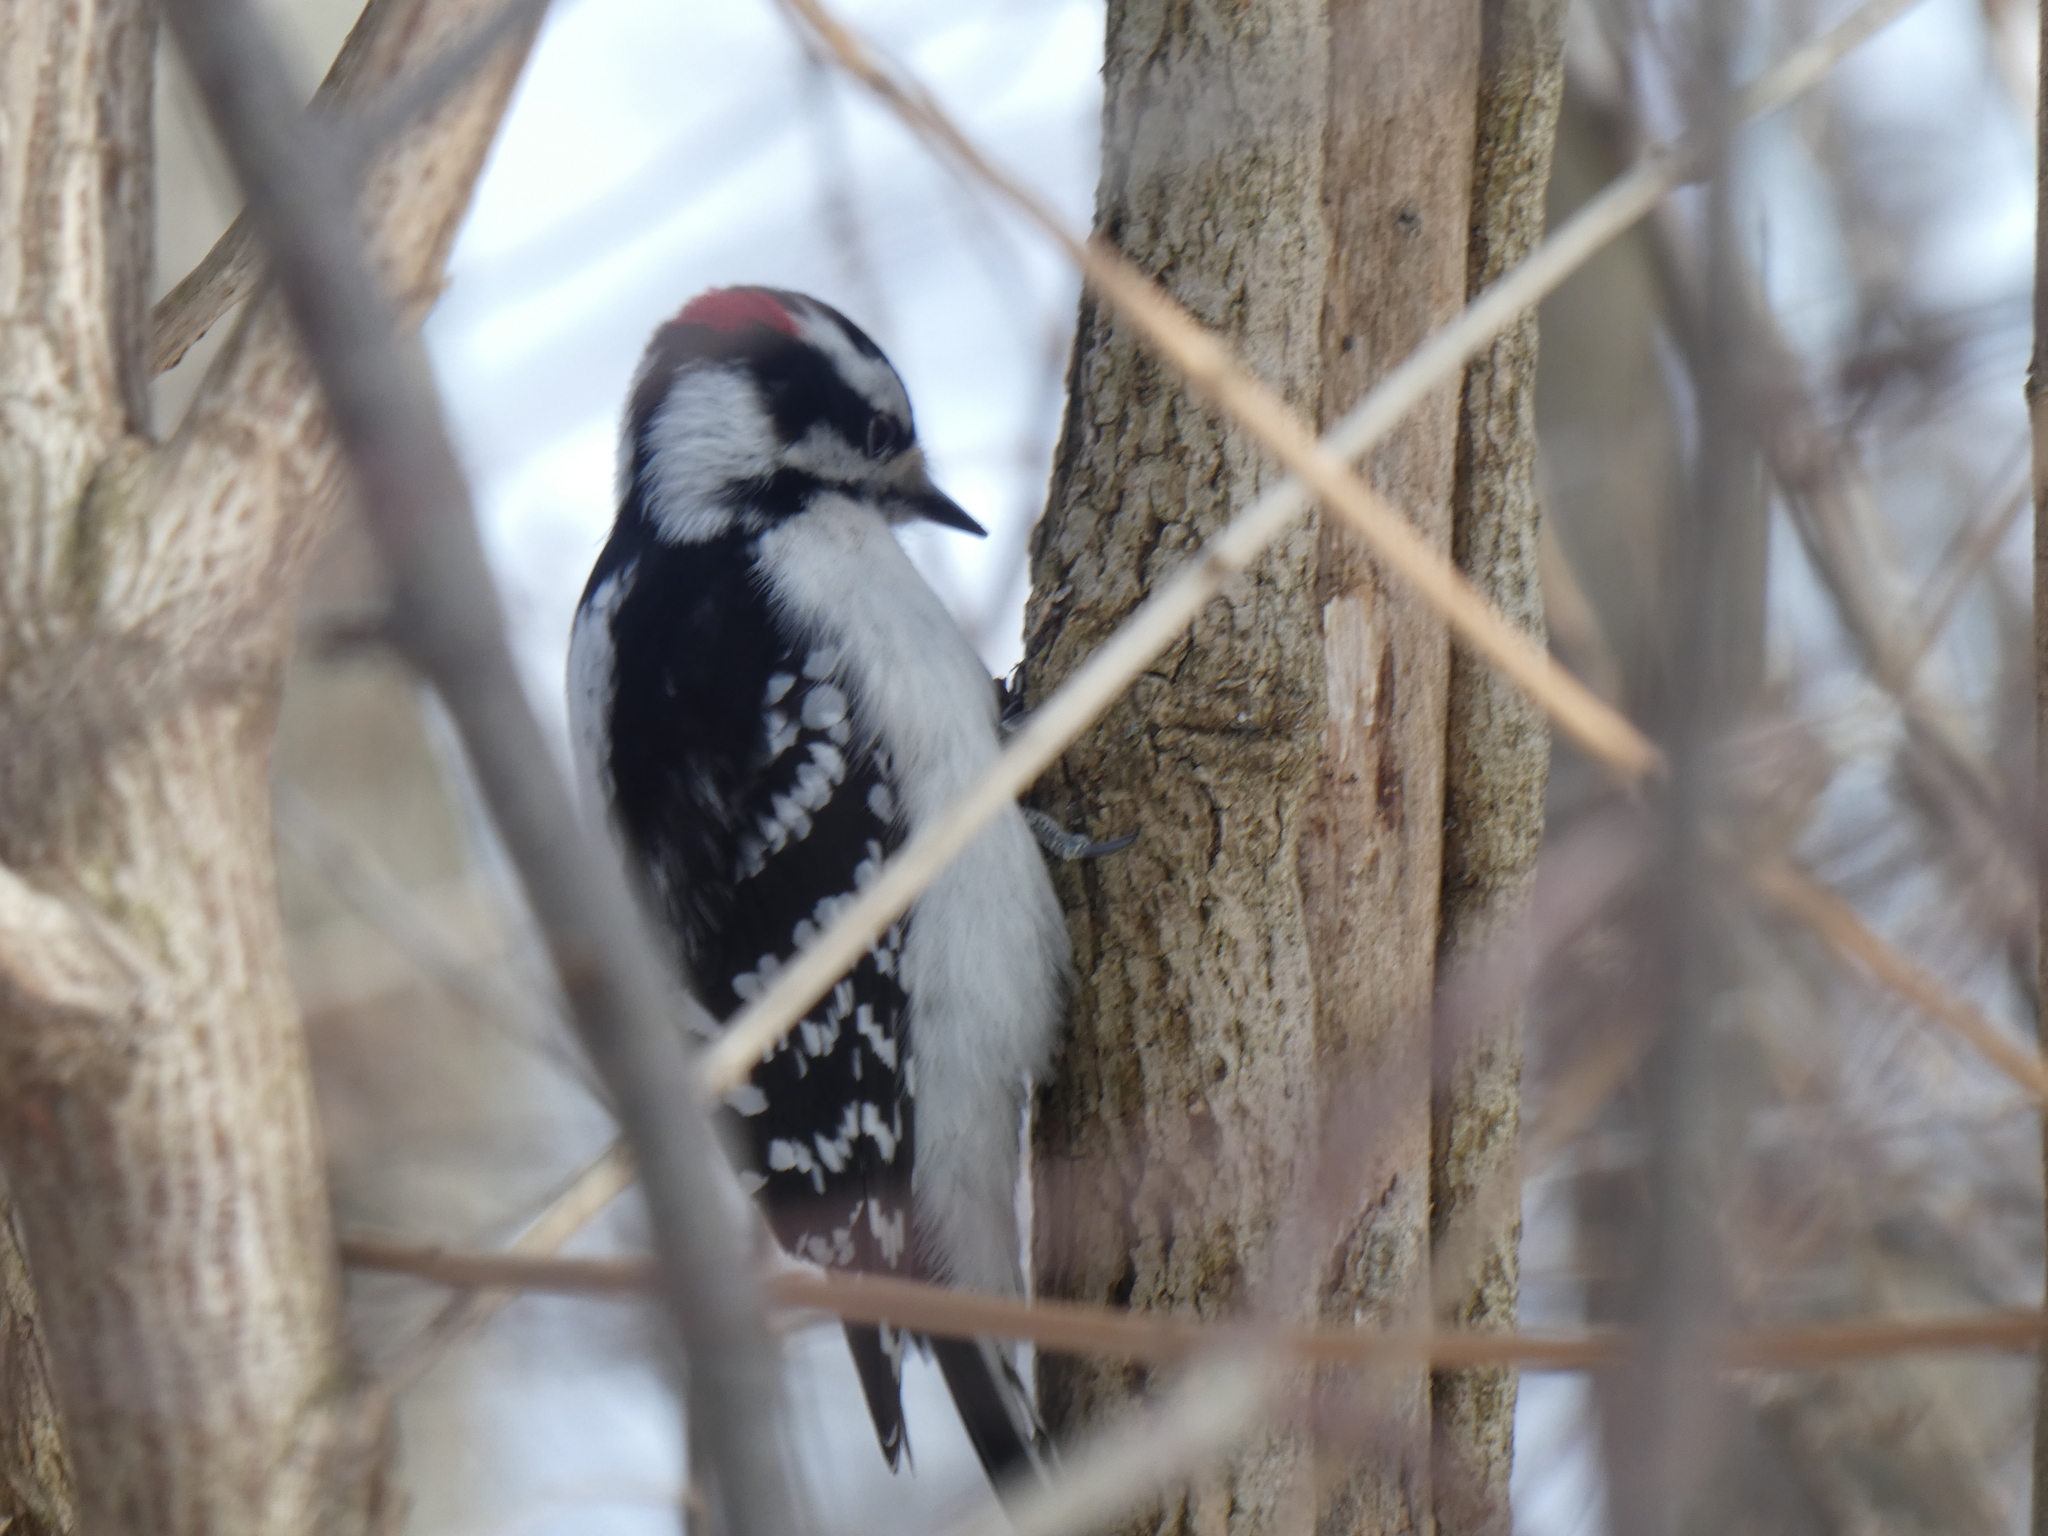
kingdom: Animalia
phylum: Chordata
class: Aves
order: Piciformes
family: Picidae
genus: Dryobates
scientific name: Dryobates pubescens
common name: Downy woodpecker
